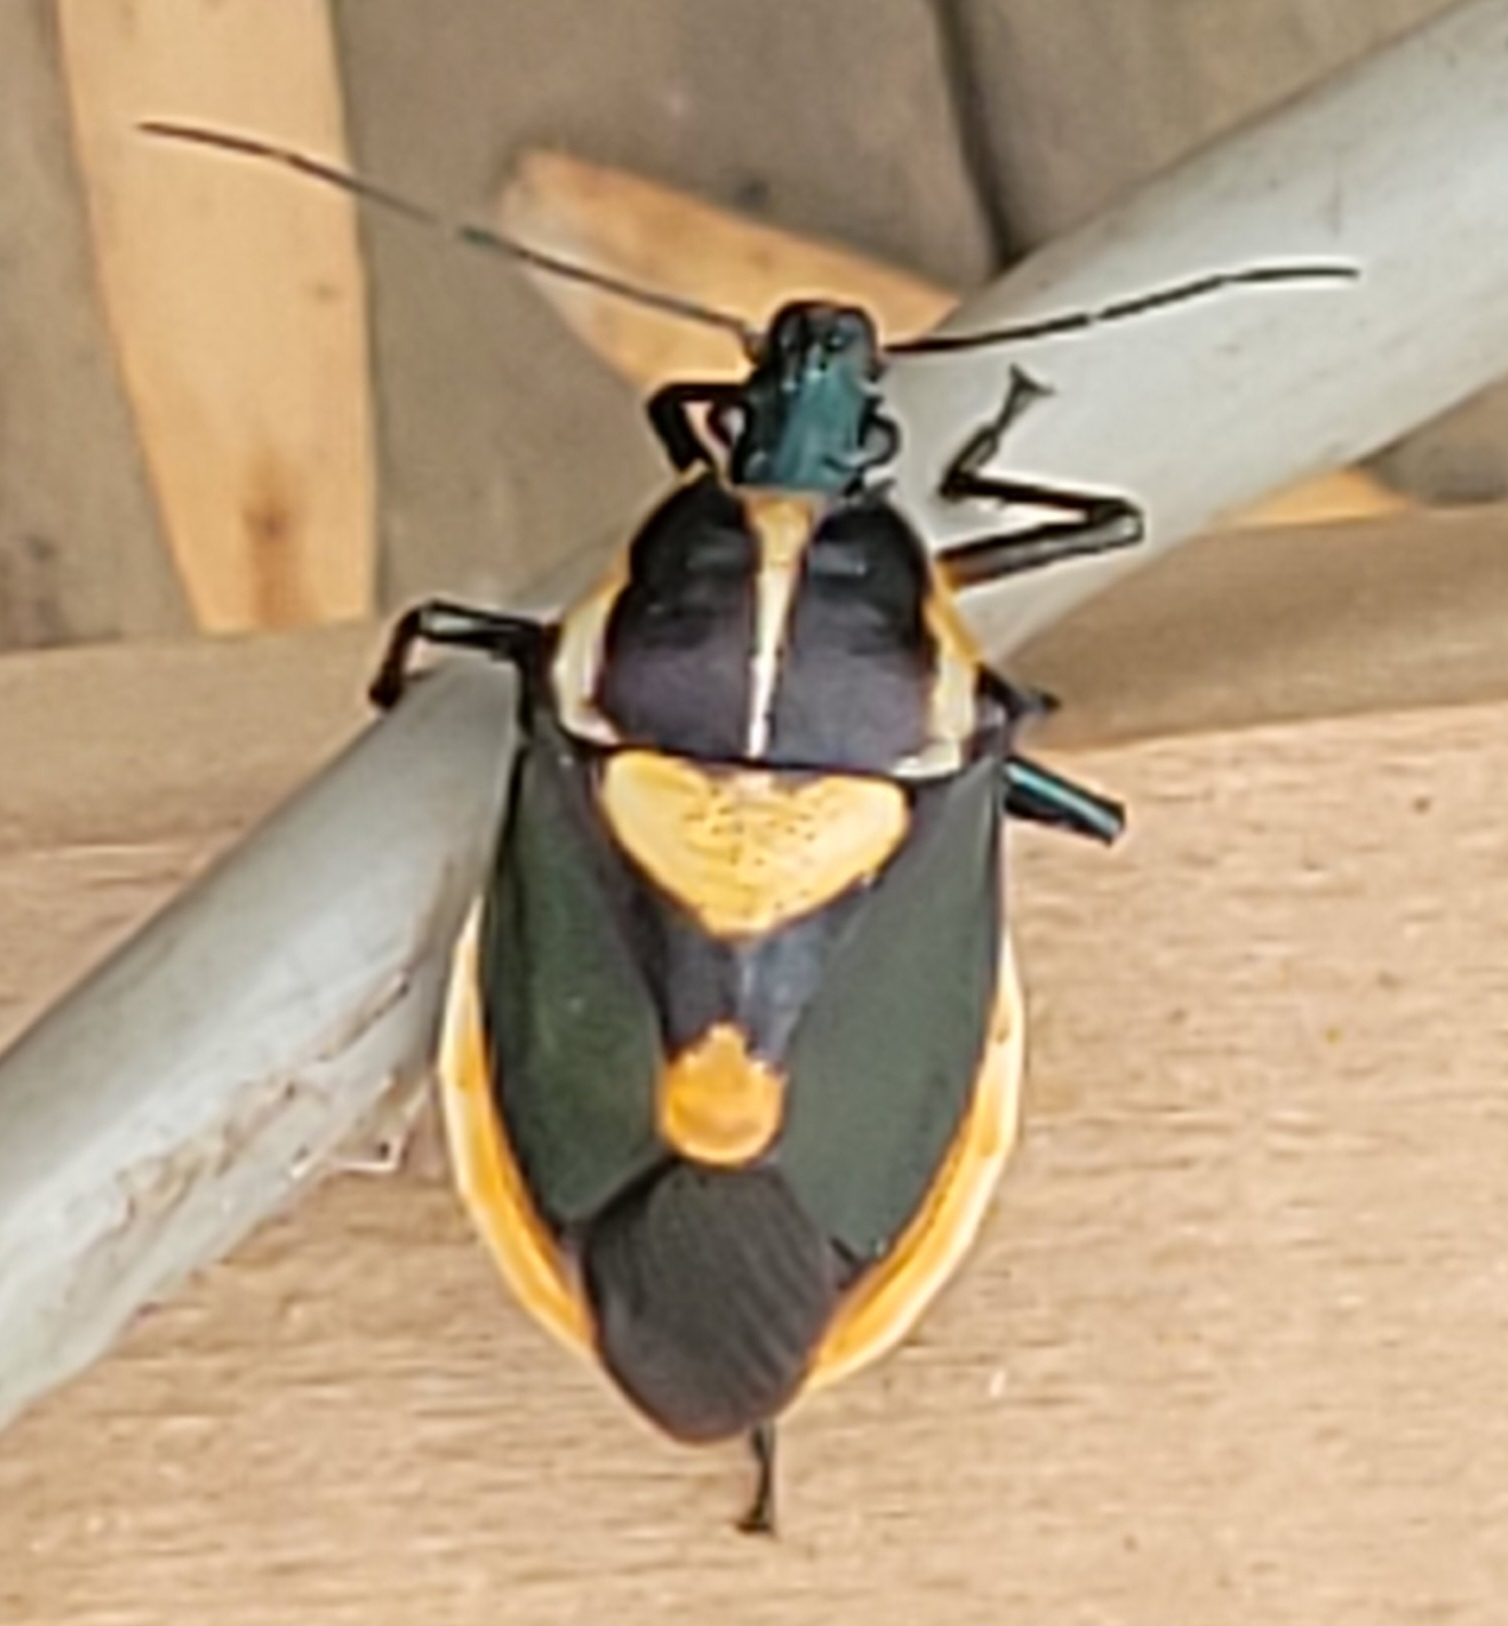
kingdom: Animalia
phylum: Arthropoda
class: Insecta
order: Hemiptera
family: Pentatomidae
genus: Euthyrhynchus
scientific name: Euthyrhynchus floridanus
